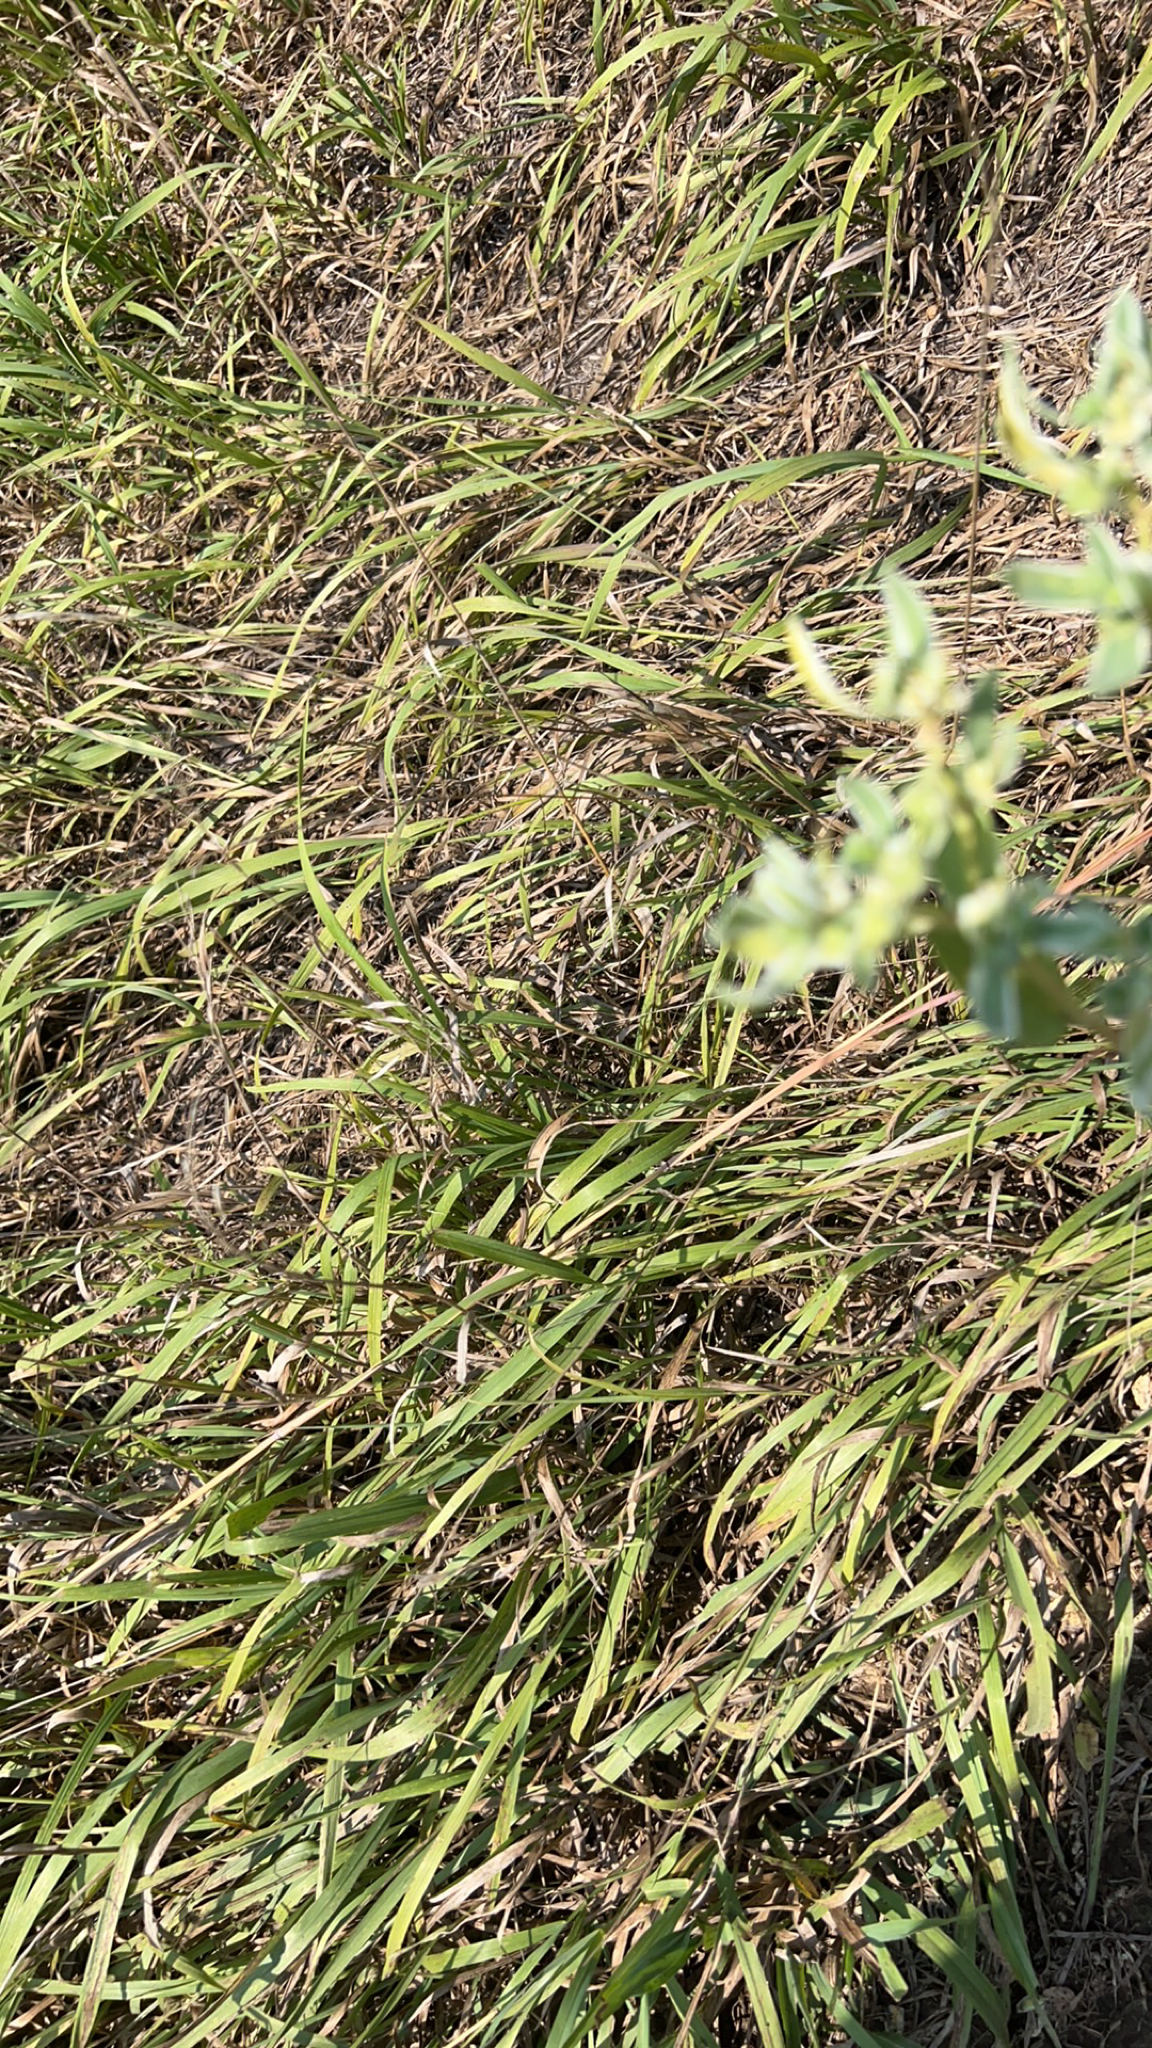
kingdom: Plantae
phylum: Tracheophyta
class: Magnoliopsida
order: Malpighiales
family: Euphorbiaceae
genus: Euphorbia
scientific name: Euphorbia marginata
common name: Ghostweed
